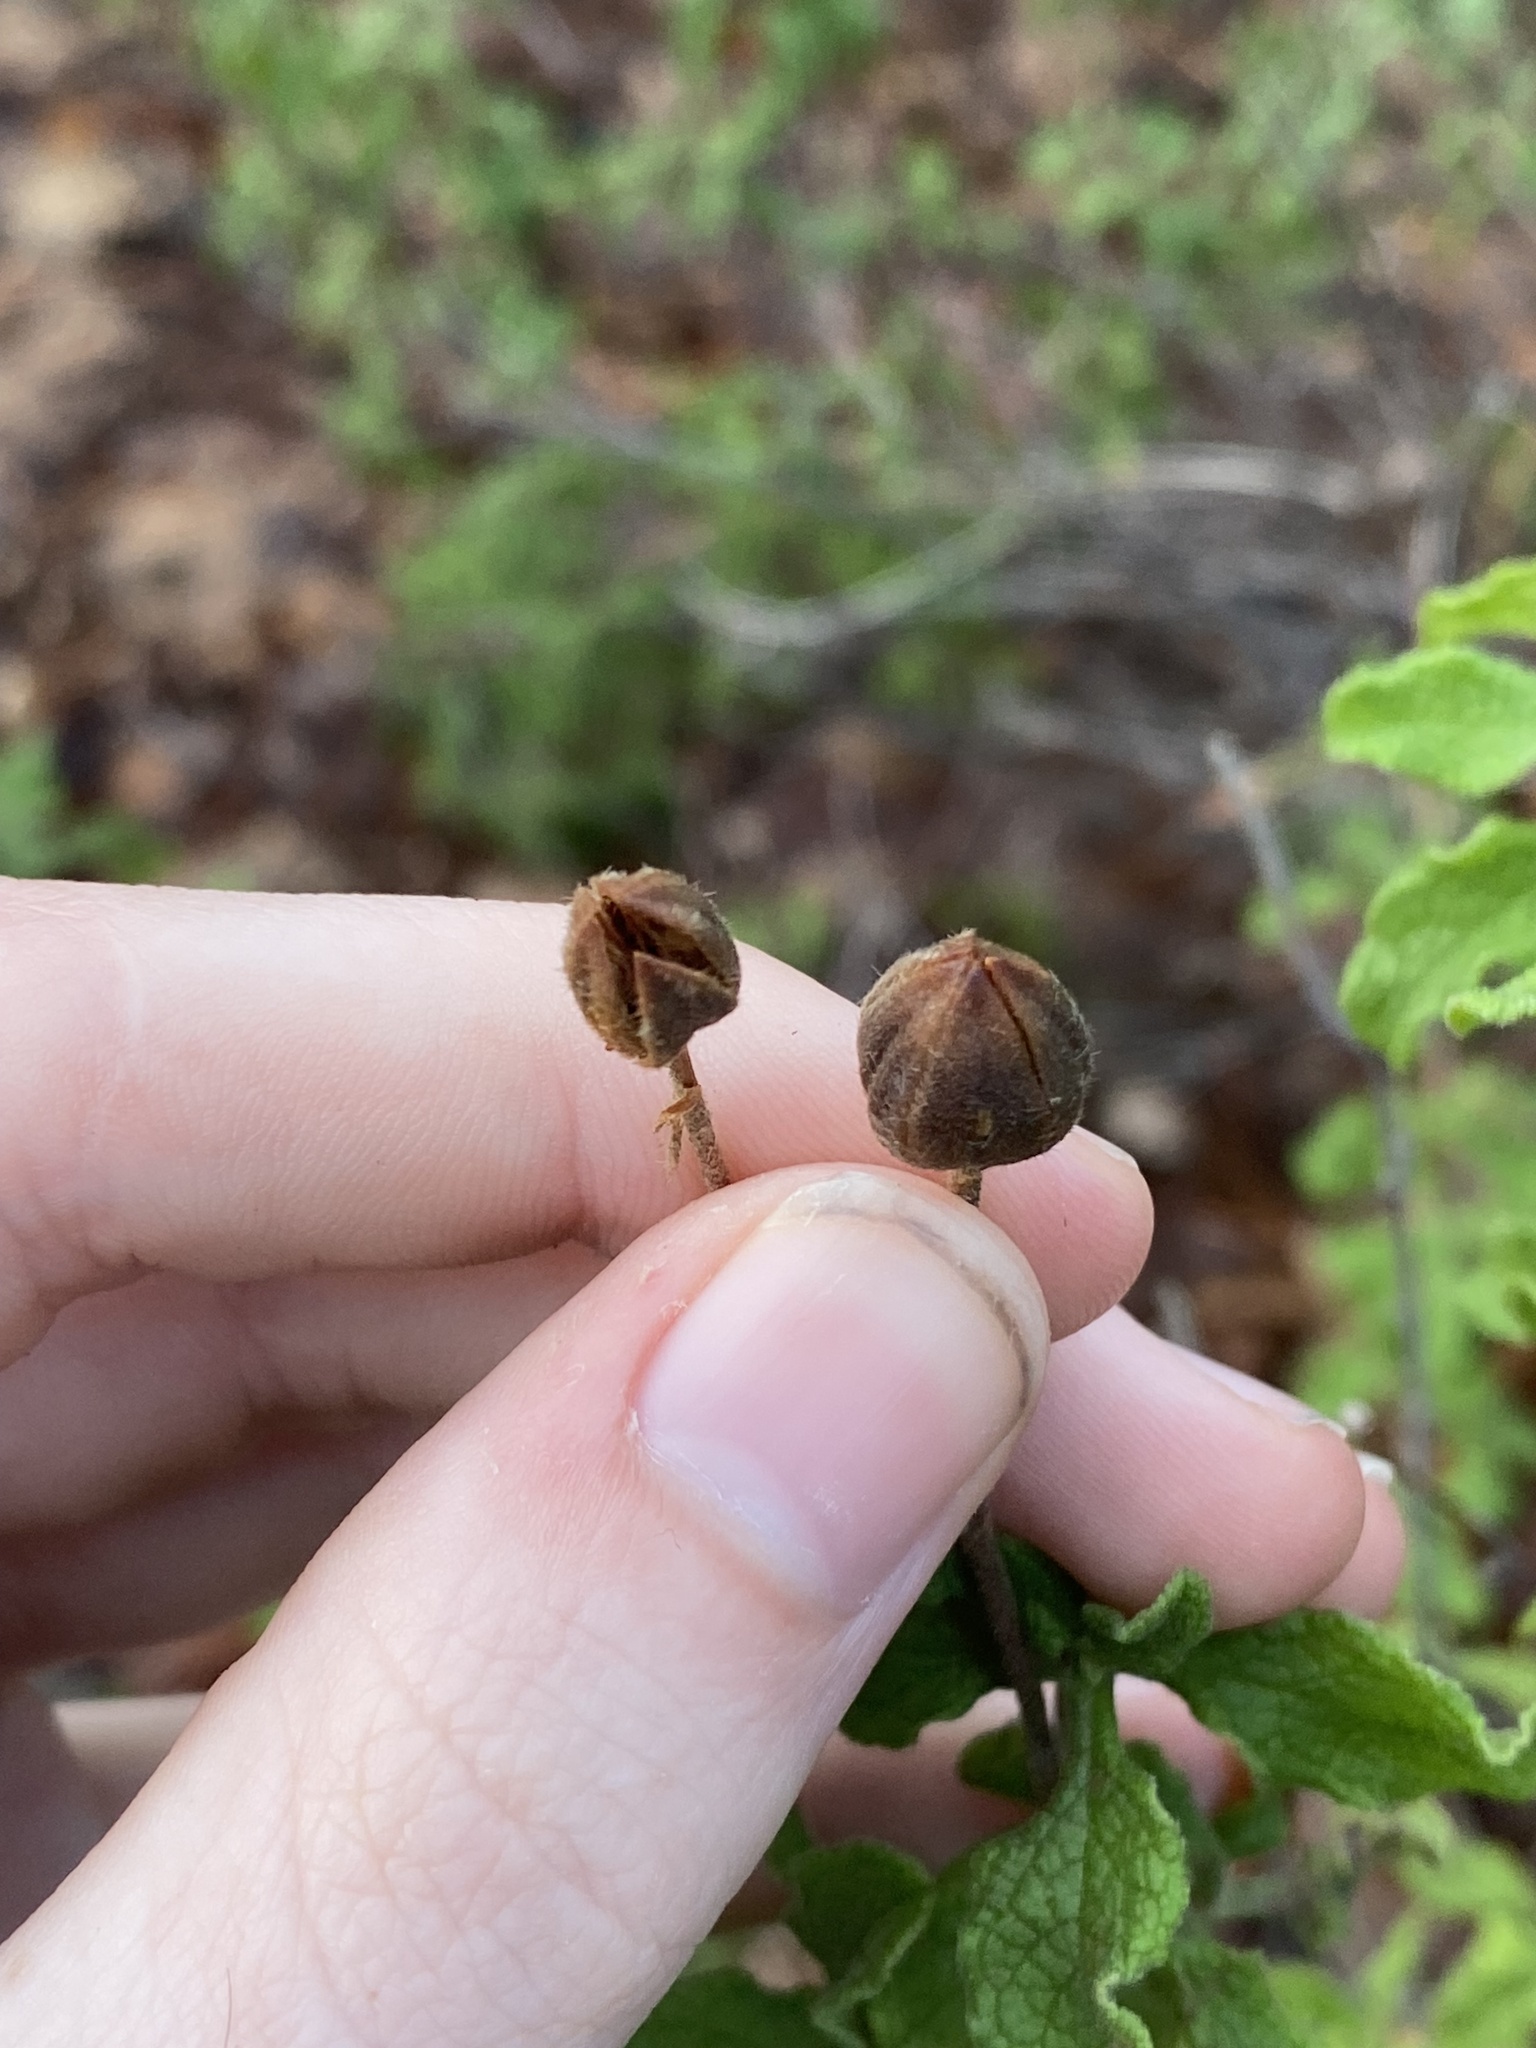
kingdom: Plantae
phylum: Tracheophyta
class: Magnoliopsida
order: Malvales
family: Cistaceae
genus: Cistus
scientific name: Cistus creticus
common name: Cretan rockrose
